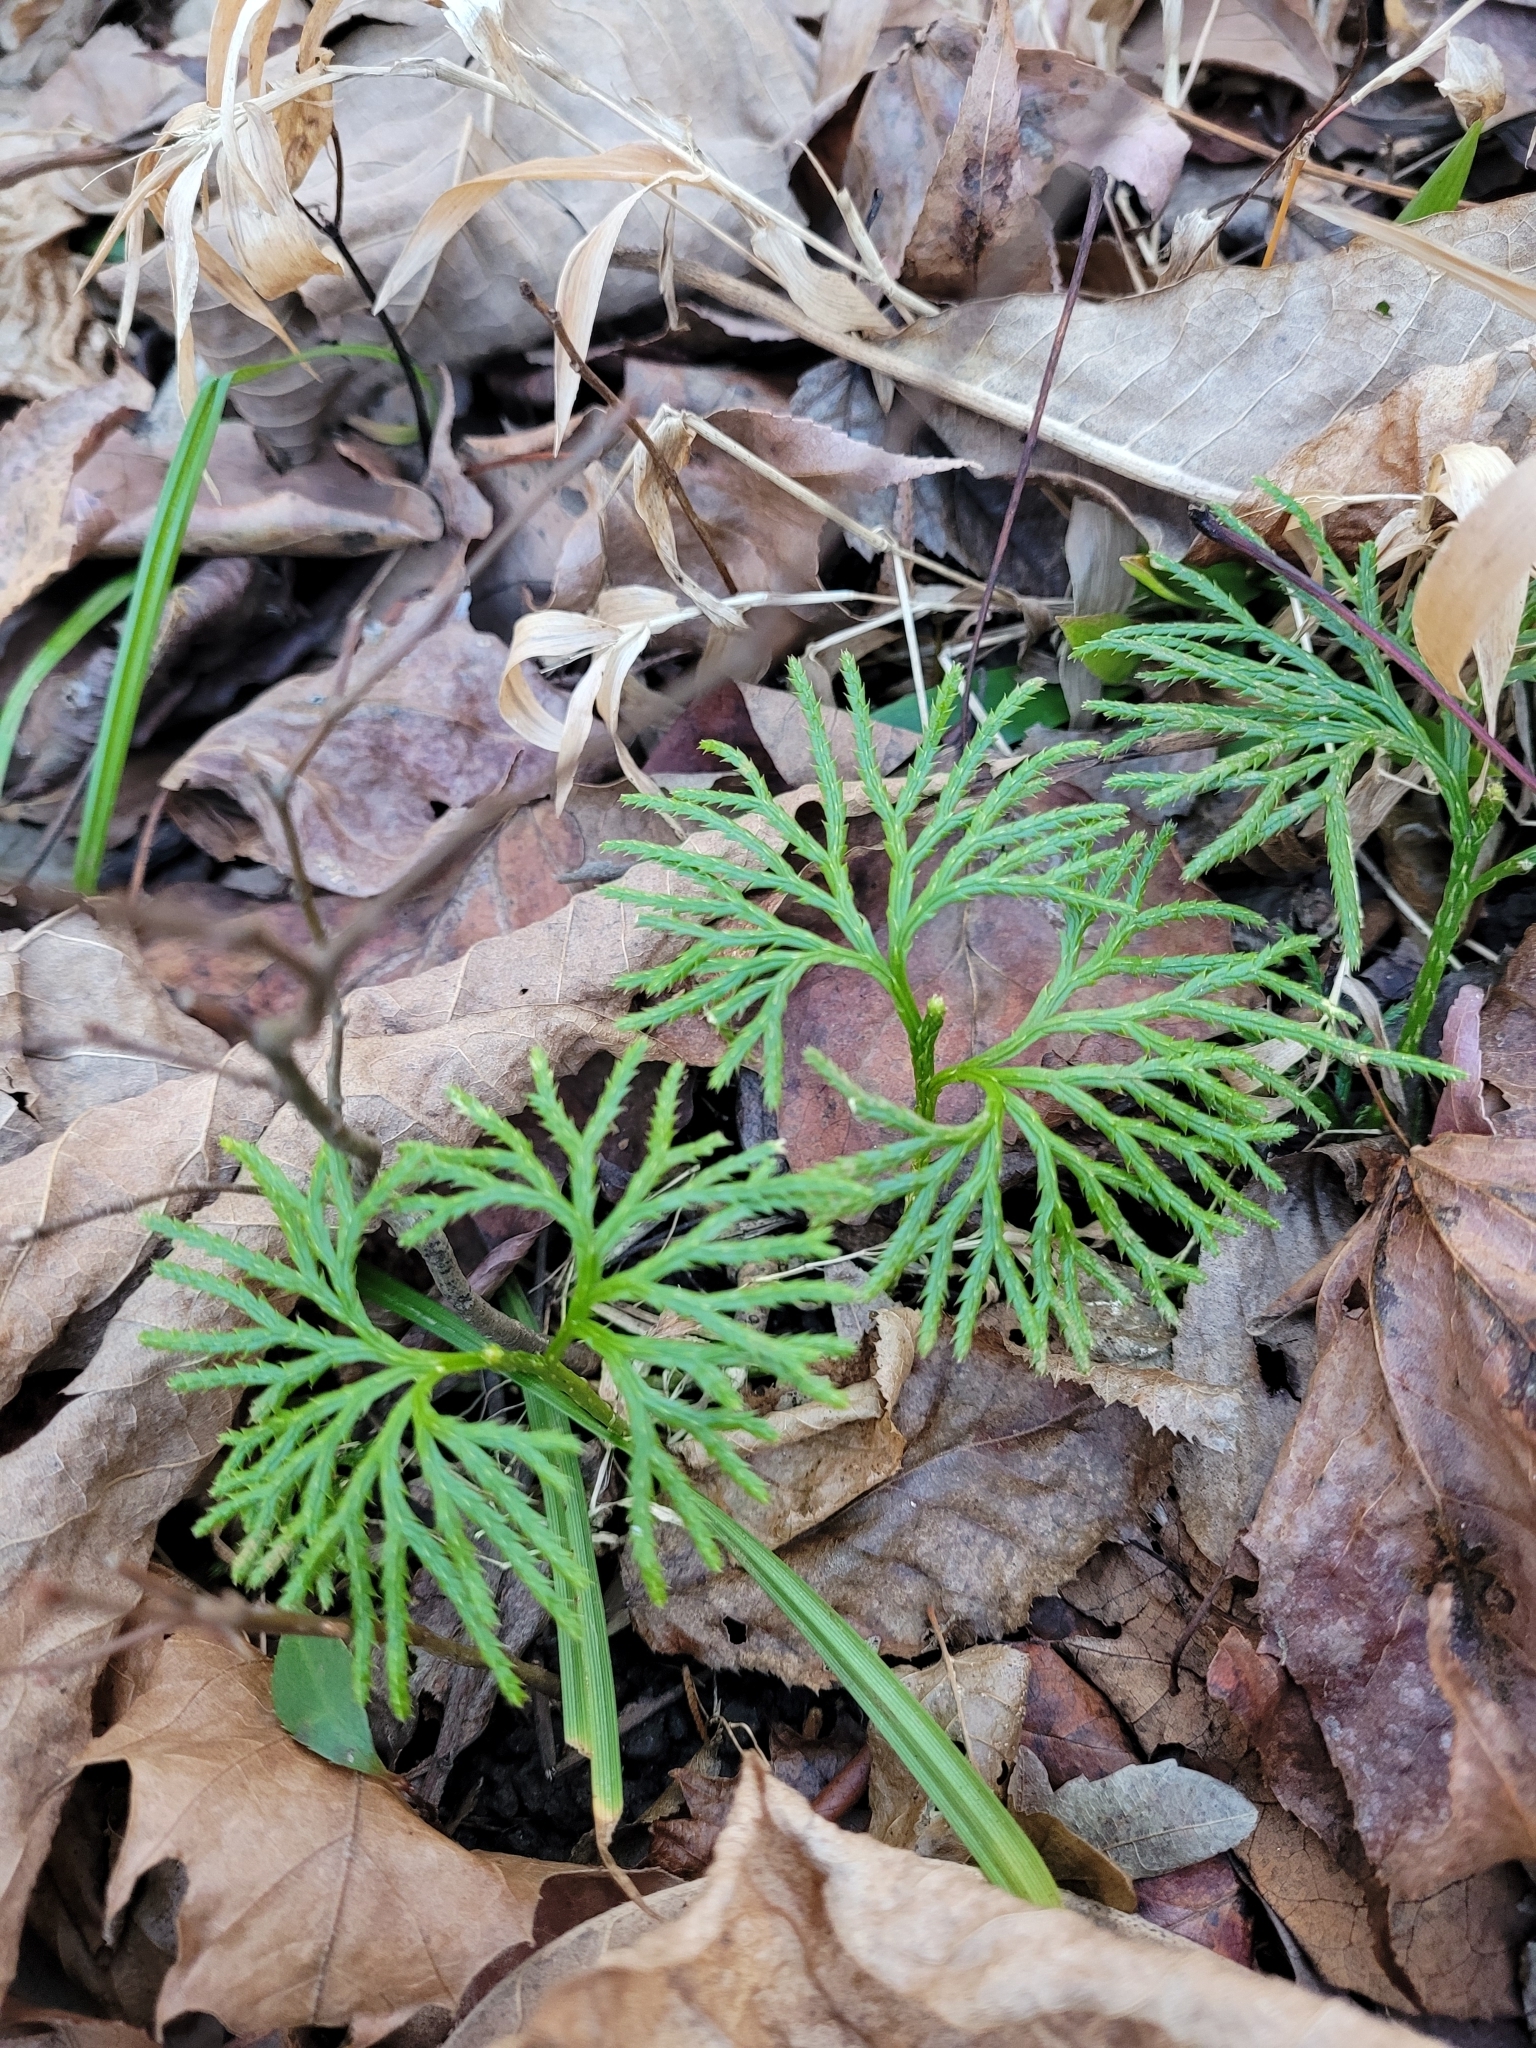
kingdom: Plantae
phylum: Tracheophyta
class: Lycopodiopsida
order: Lycopodiales
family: Lycopodiaceae
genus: Diphasiastrum
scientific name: Diphasiastrum digitatum
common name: Southern running-pine
